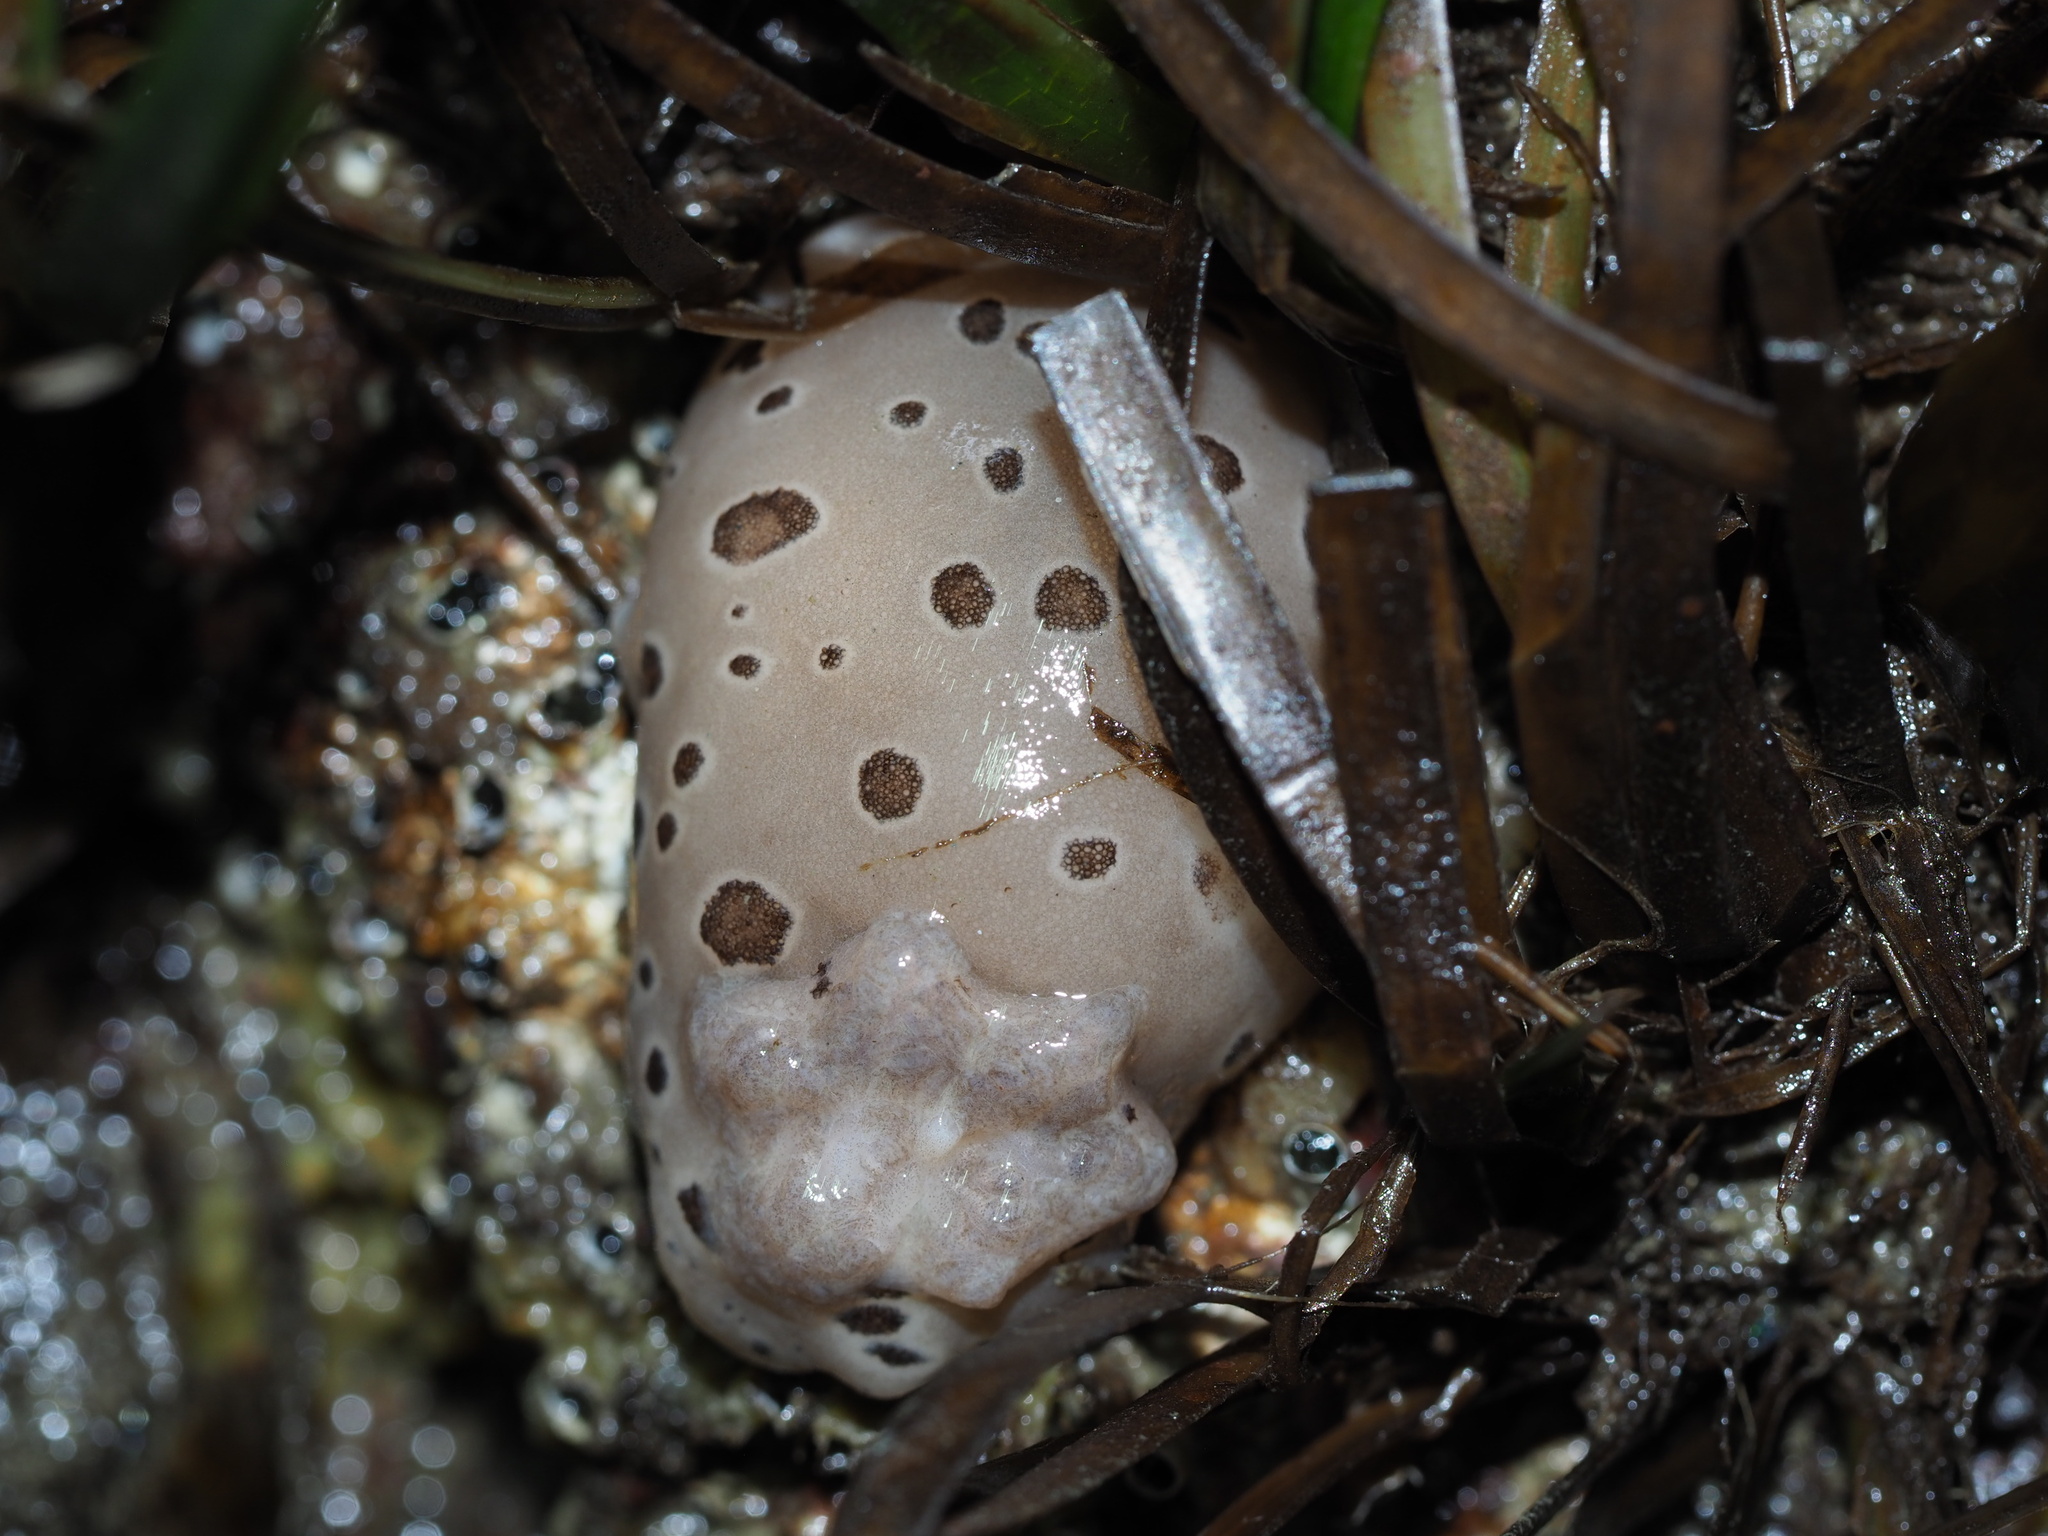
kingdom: Animalia
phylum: Mollusca
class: Gastropoda
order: Nudibranchia
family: Discodorididae
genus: Diaulula
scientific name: Diaulula odonoghuei
